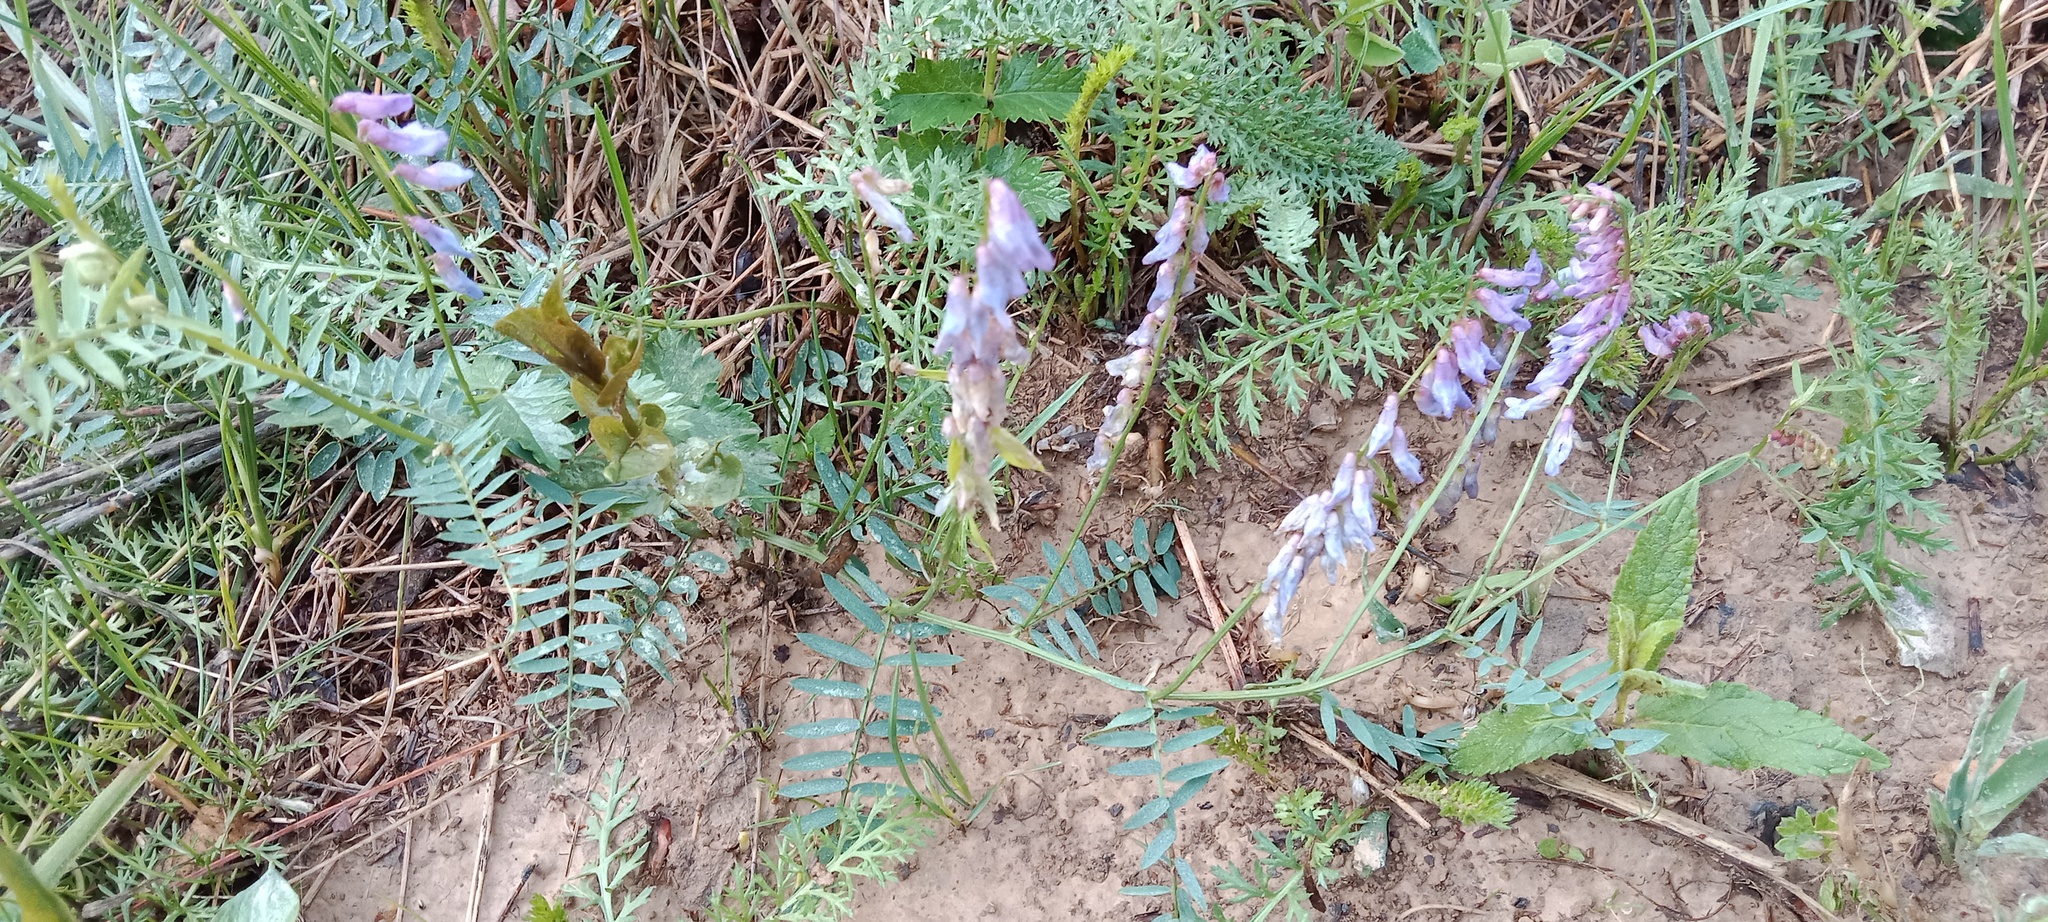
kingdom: Plantae
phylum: Tracheophyta
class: Magnoliopsida
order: Fabales
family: Fabaceae
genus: Vicia
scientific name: Vicia cracca
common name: Bird vetch
